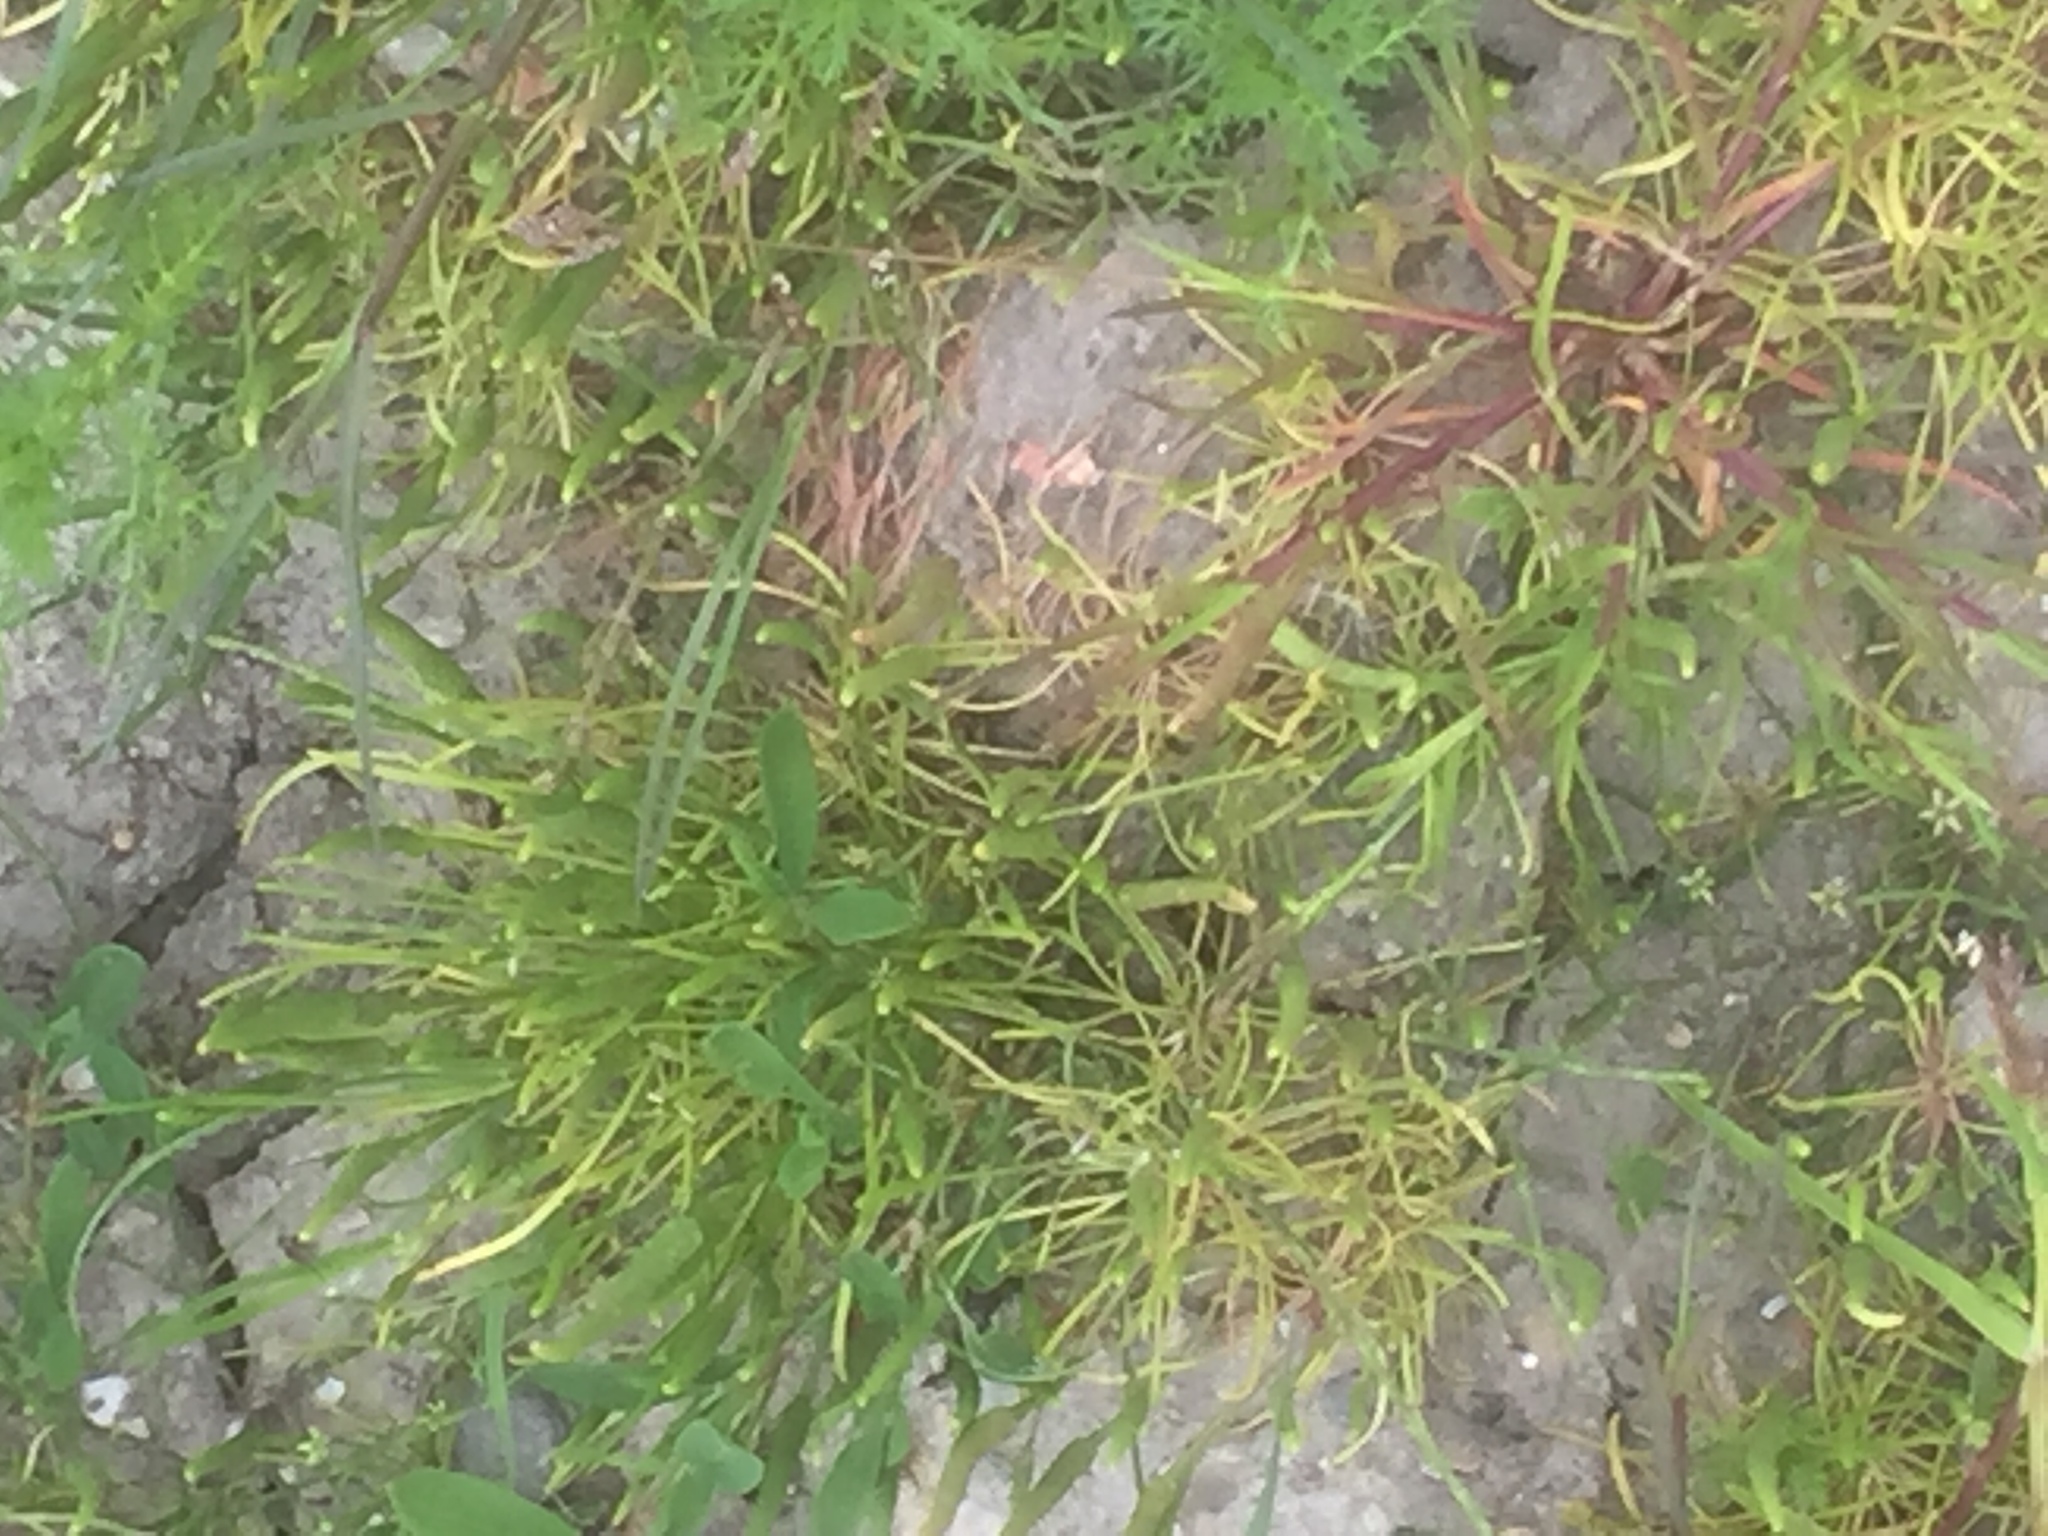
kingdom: Plantae
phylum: Tracheophyta
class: Magnoliopsida
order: Ranunculales
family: Ranunculaceae
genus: Myosurus
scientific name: Myosurus minimus
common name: Mousetail
